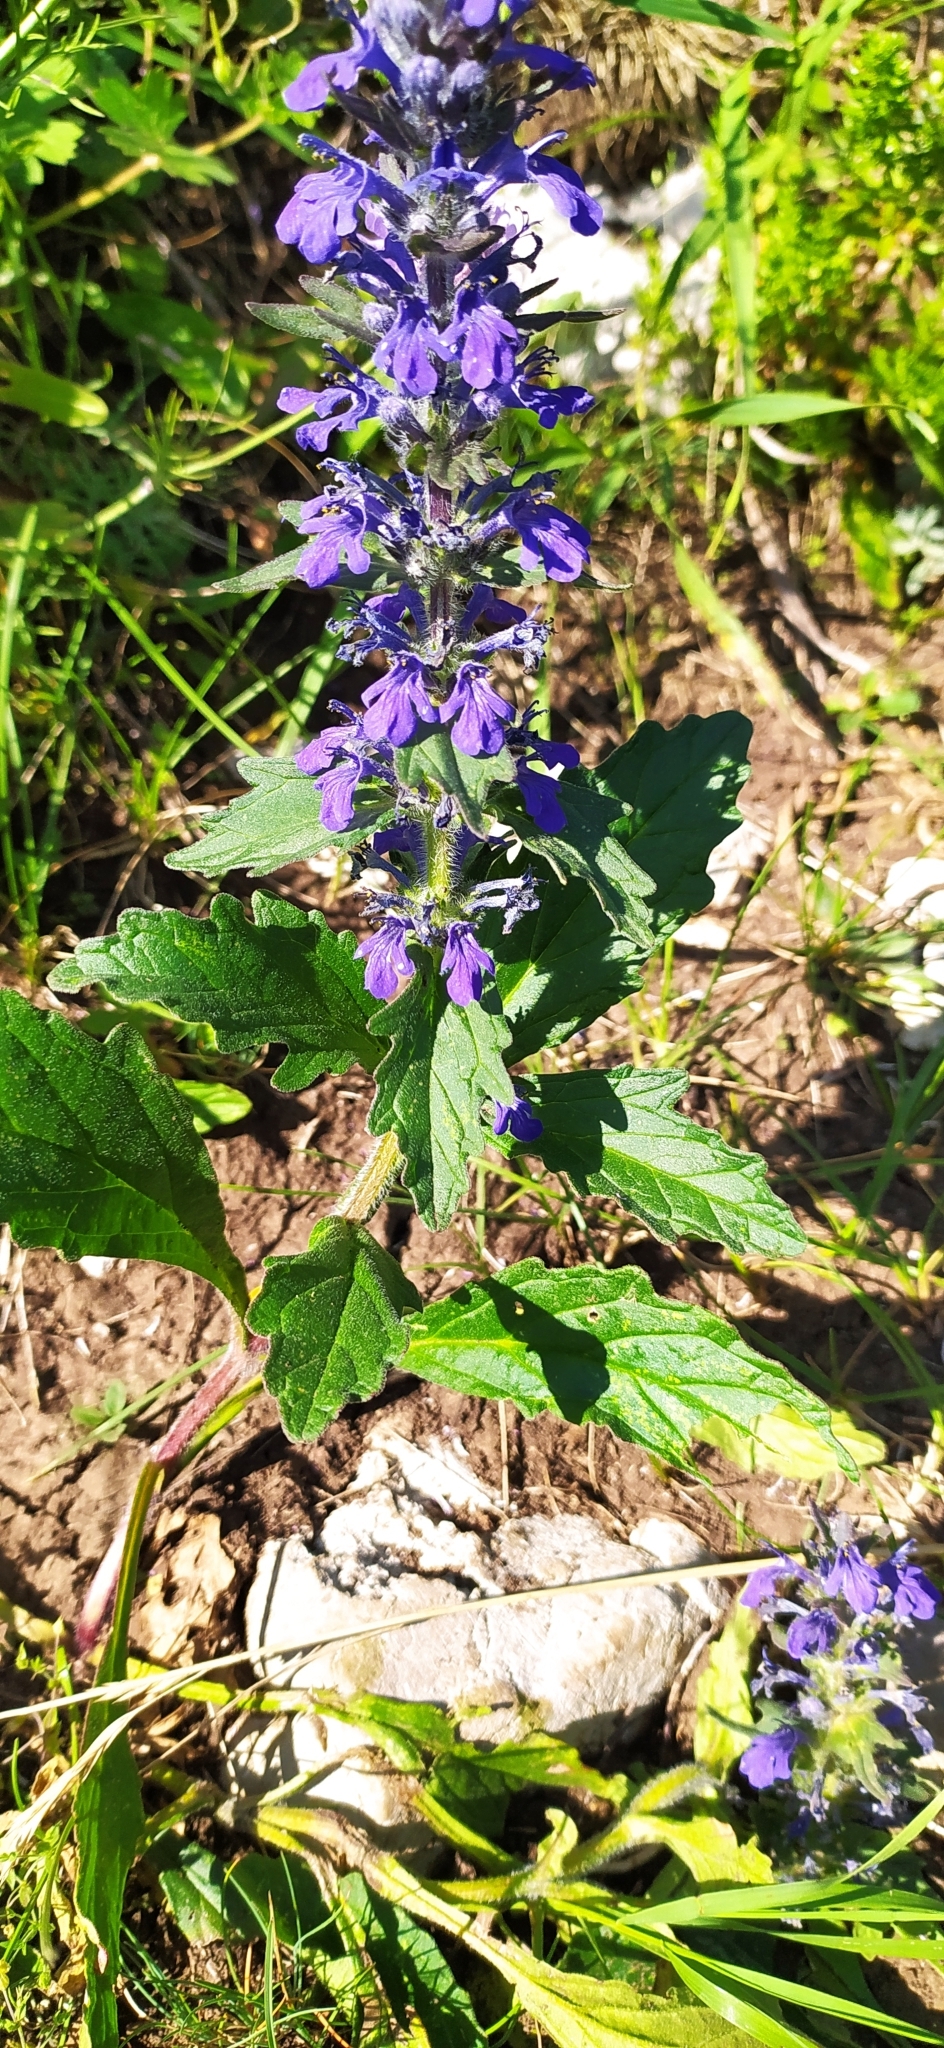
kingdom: Plantae
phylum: Tracheophyta
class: Magnoliopsida
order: Lamiales
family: Lamiaceae
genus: Ajuga
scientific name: Ajuga genevensis
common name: Blue bugle
